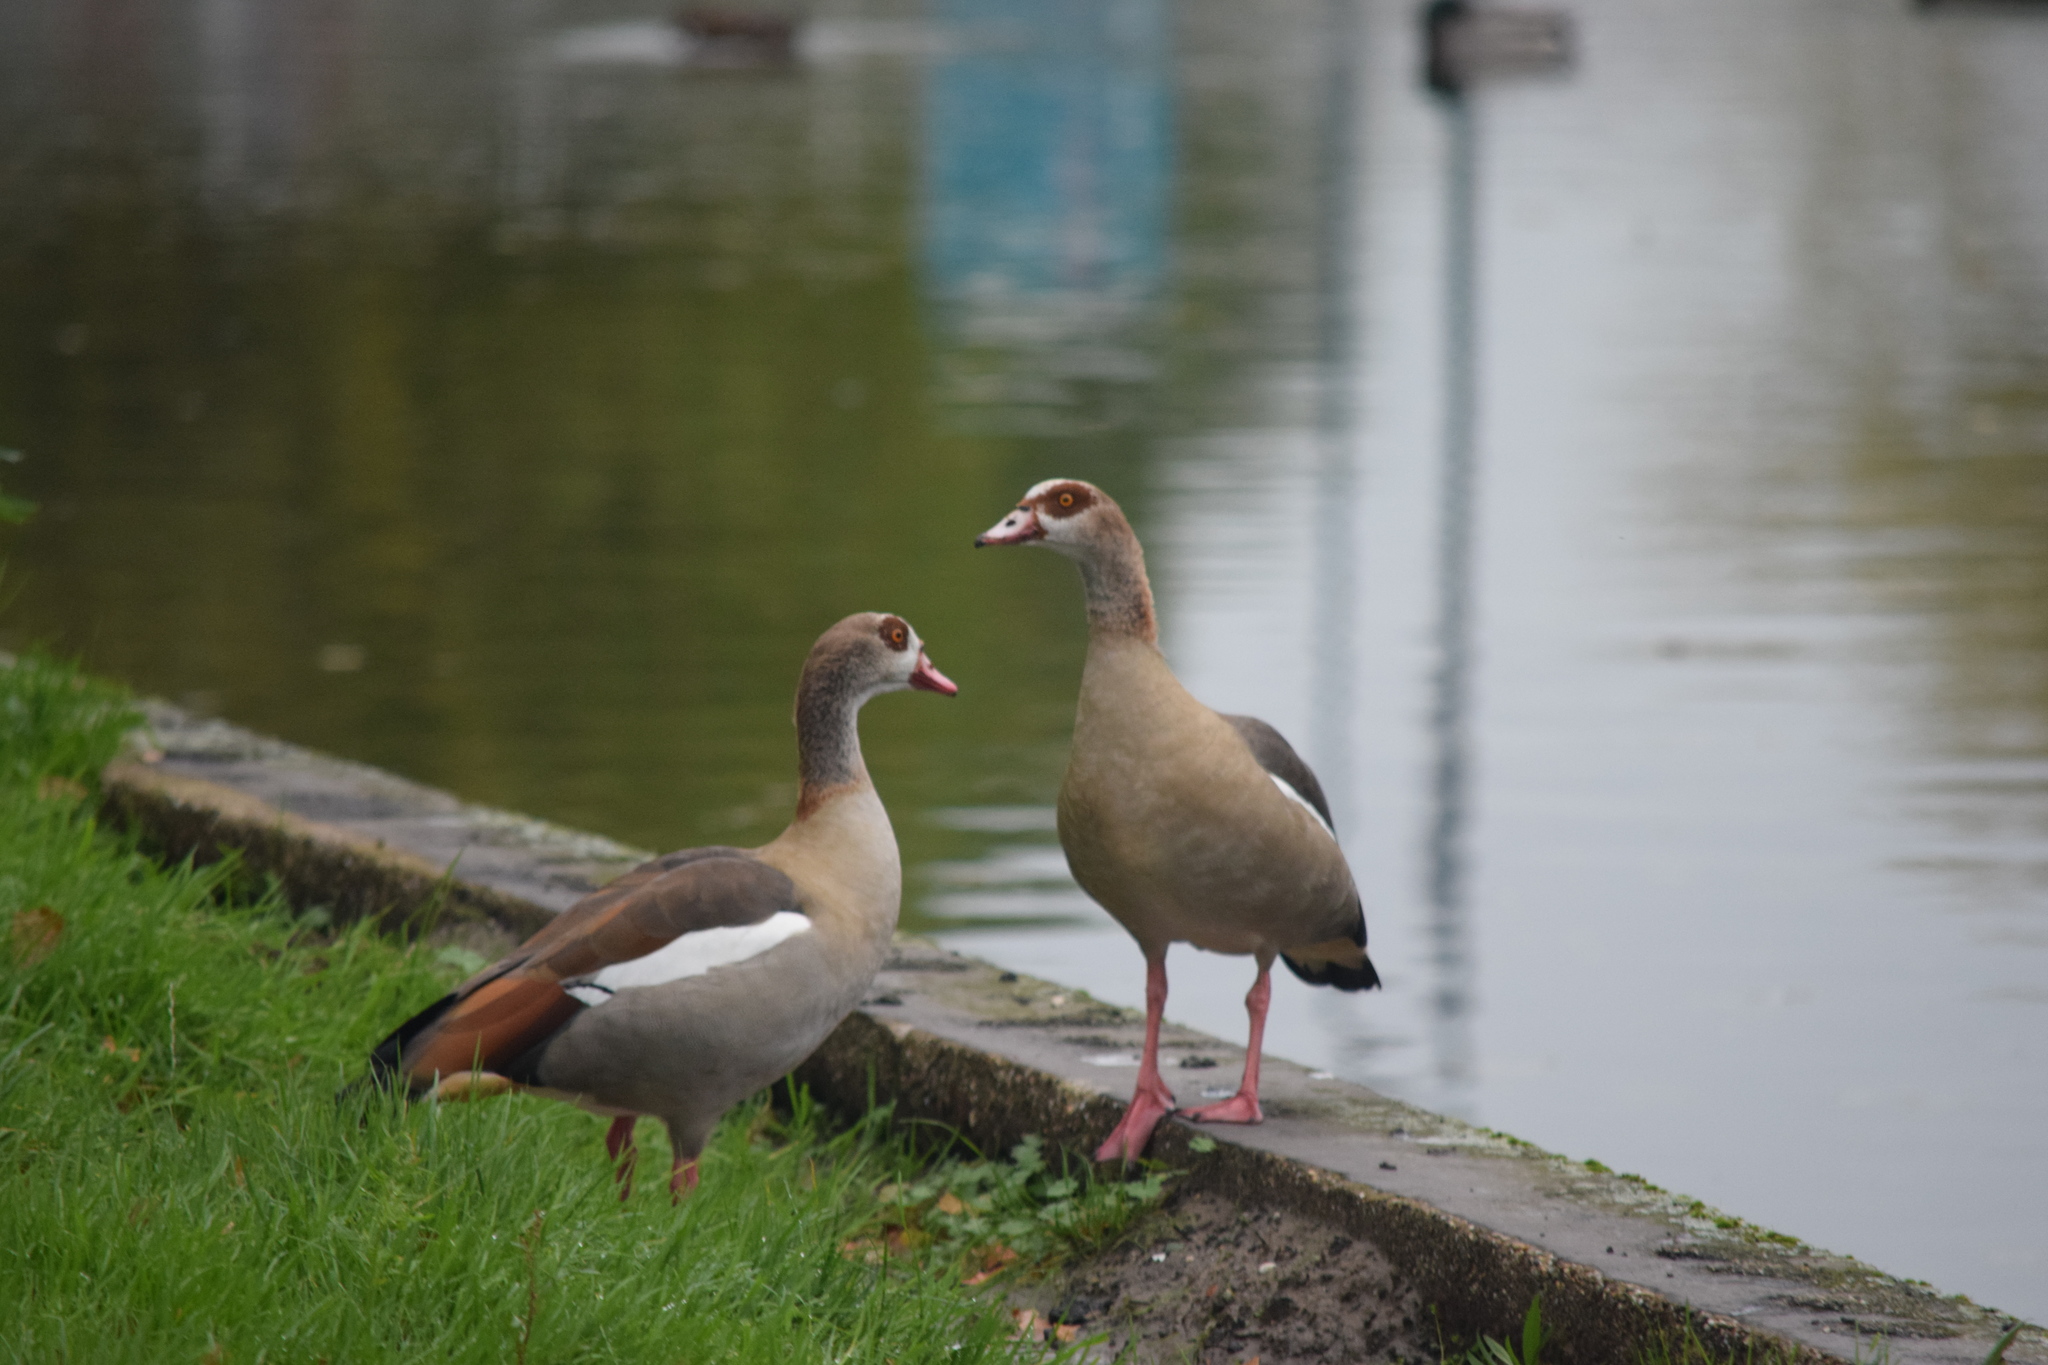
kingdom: Animalia
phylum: Chordata
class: Aves
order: Anseriformes
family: Anatidae
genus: Alopochen
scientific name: Alopochen aegyptiaca
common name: Egyptian goose
